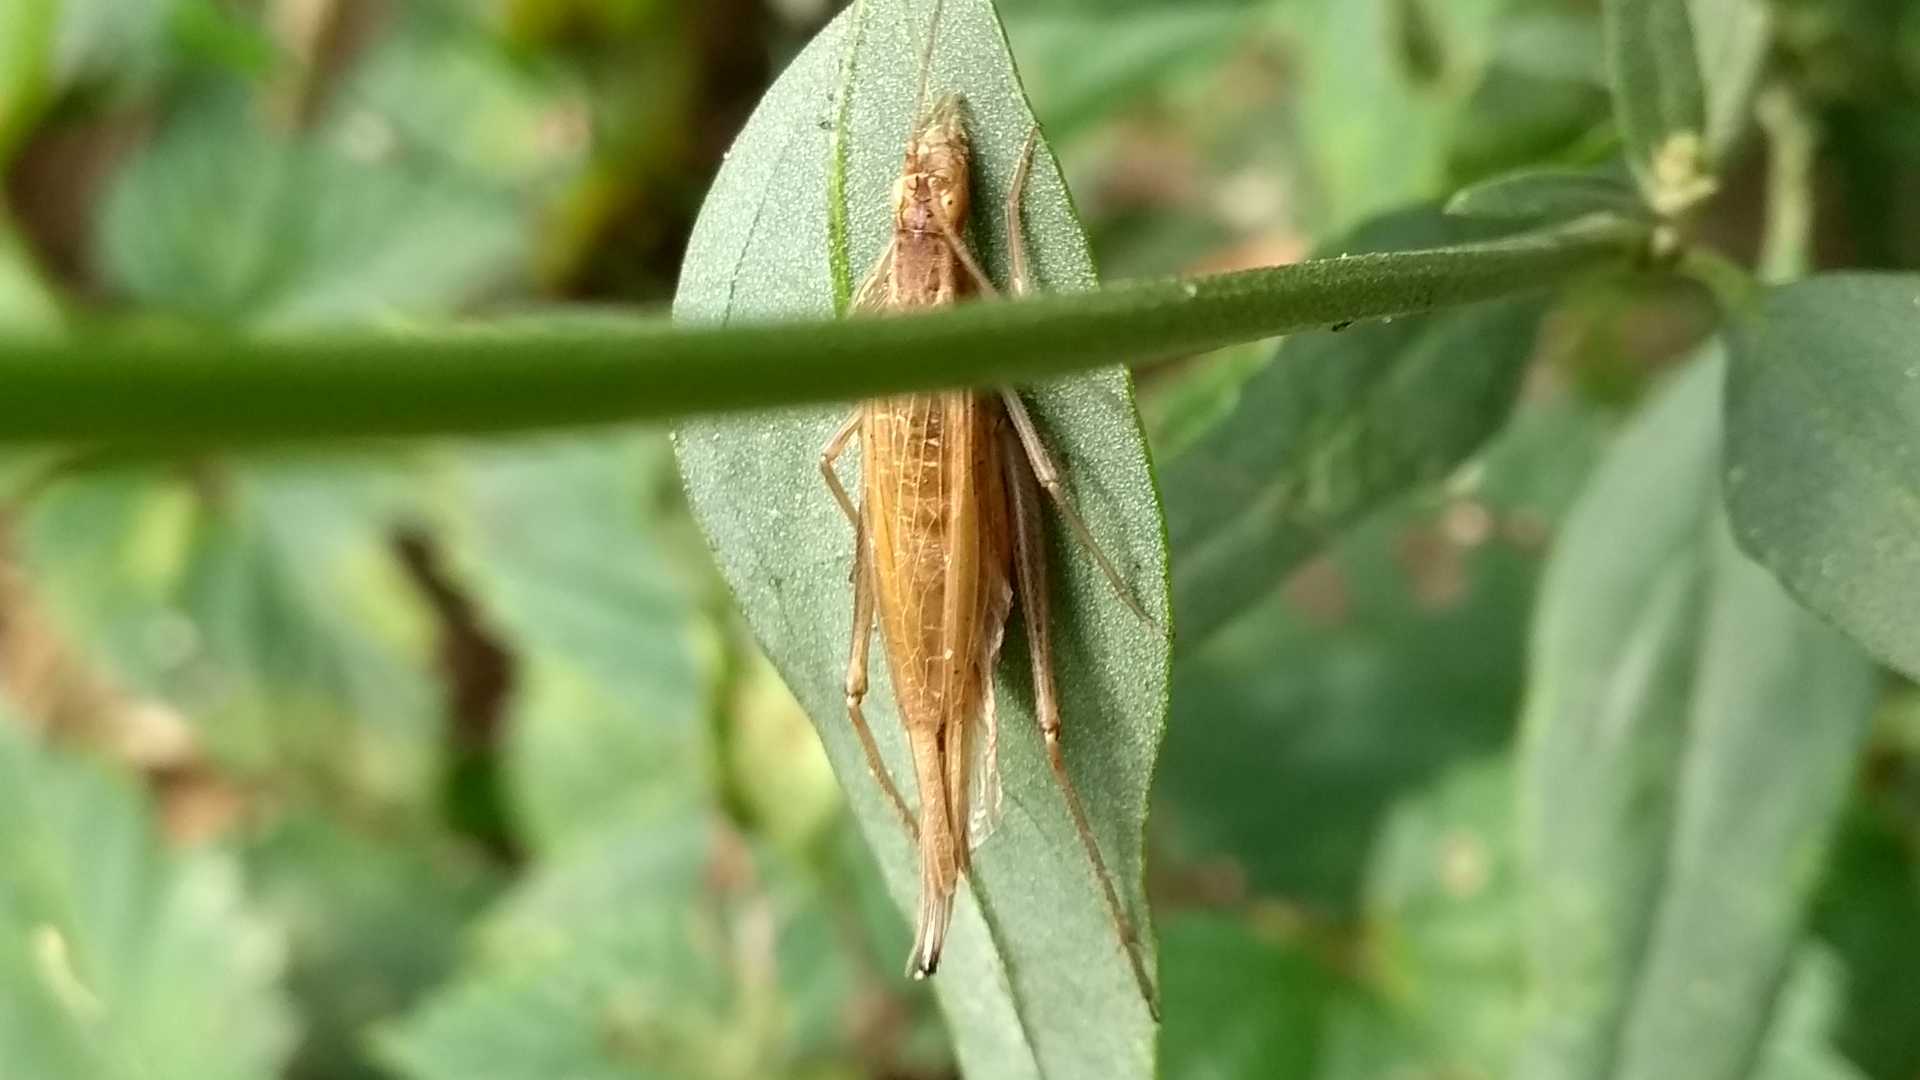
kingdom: Animalia
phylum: Arthropoda
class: Insecta
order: Orthoptera
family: Gryllidae
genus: Oecanthus
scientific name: Oecanthus pellucens
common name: Tree-cricket
